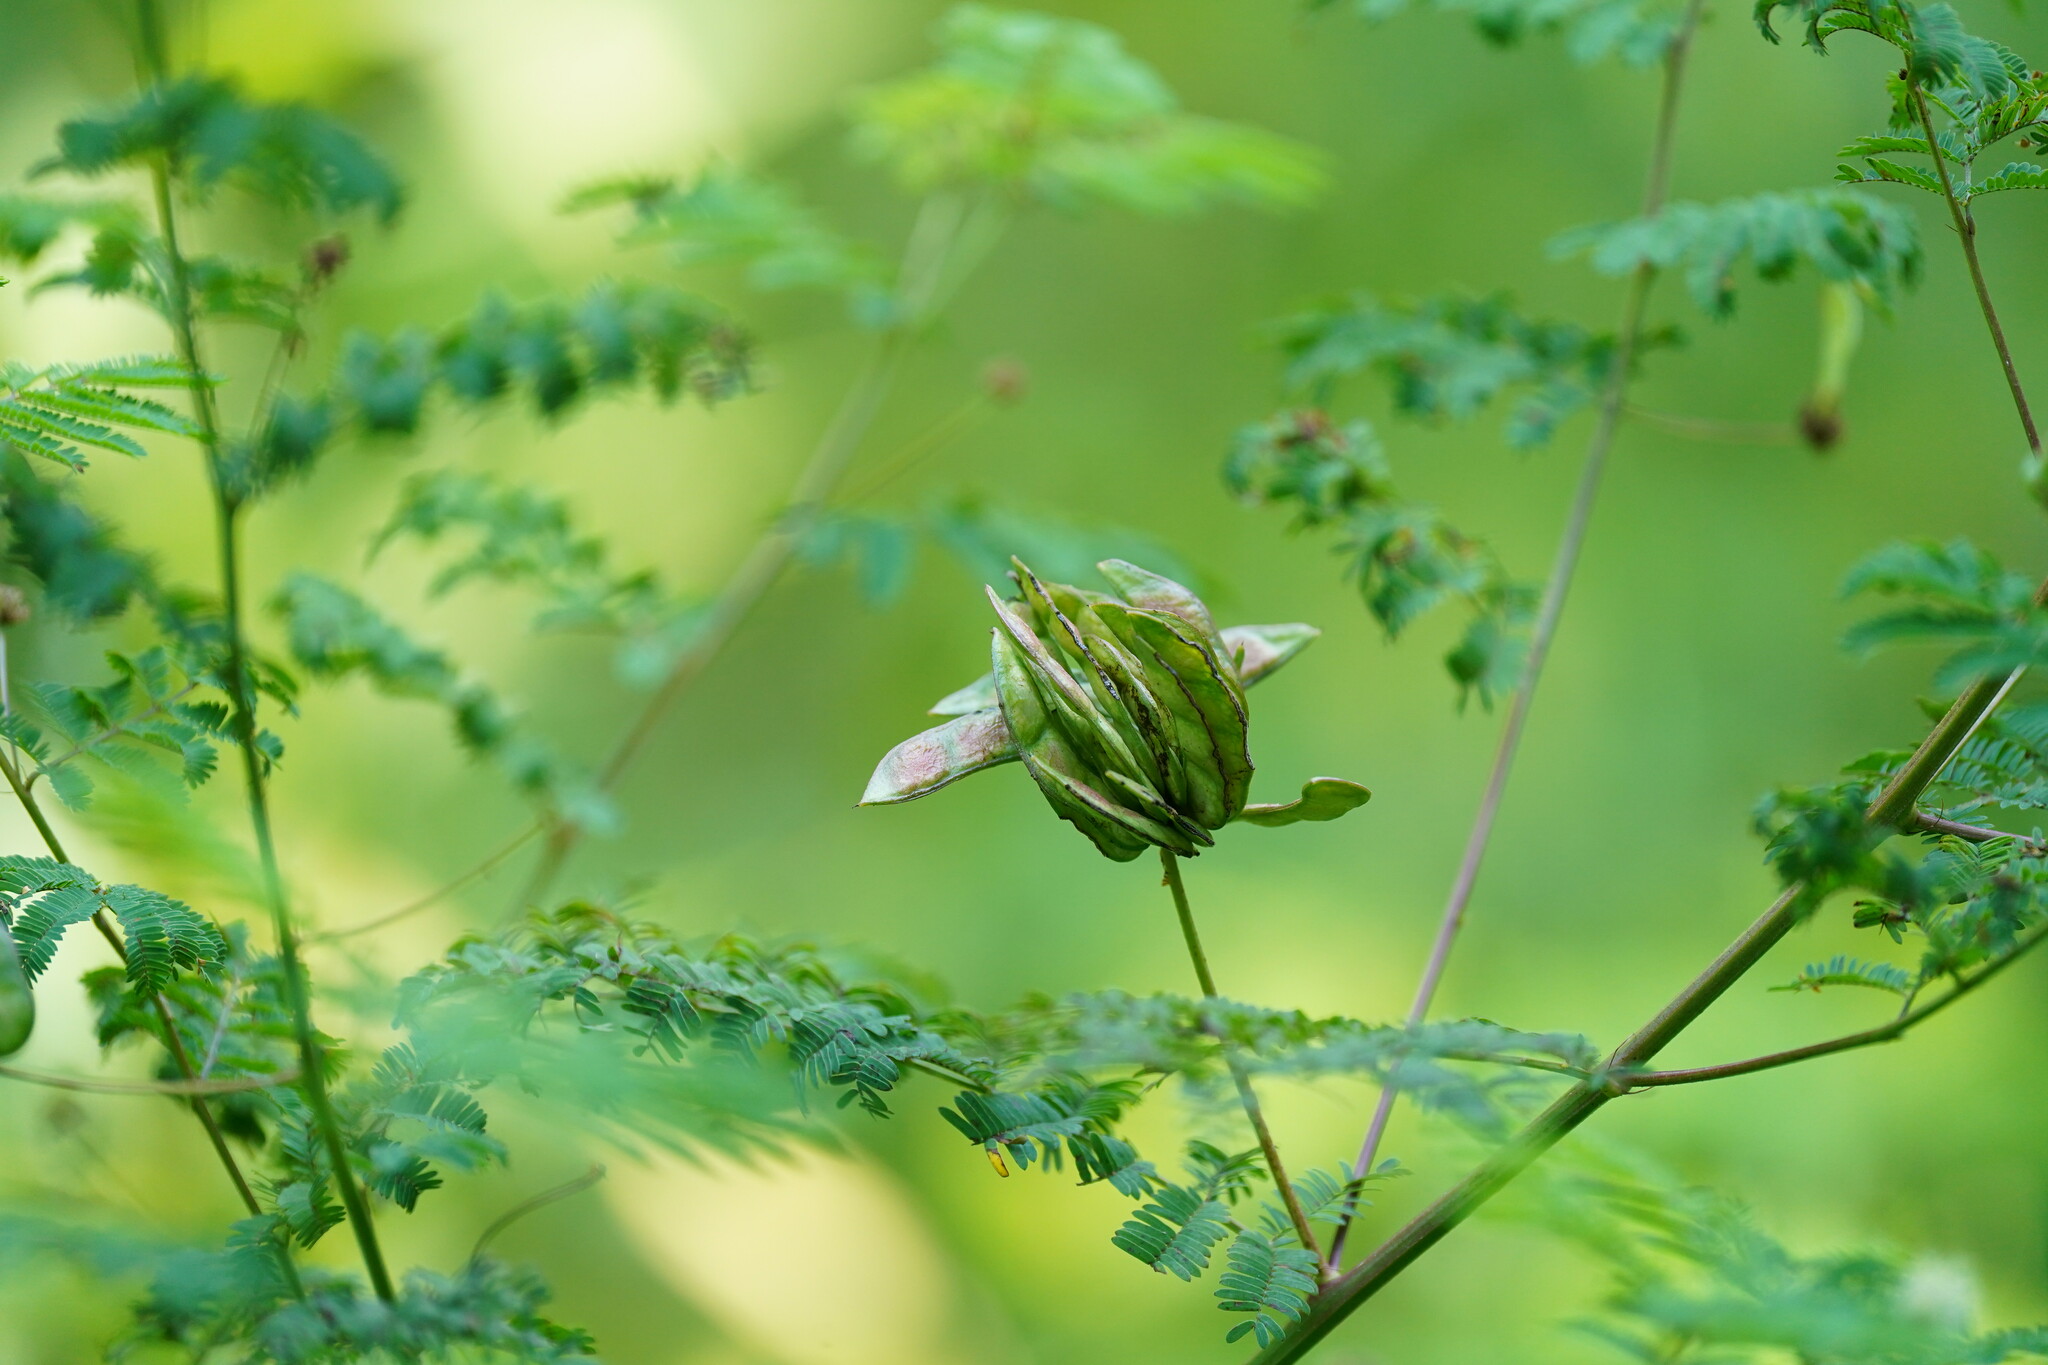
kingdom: Plantae
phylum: Tracheophyta
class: Magnoliopsida
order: Fabales
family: Fabaceae
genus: Desmanthus
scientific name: Desmanthus illinoensis
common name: Illinois bundle-flower
